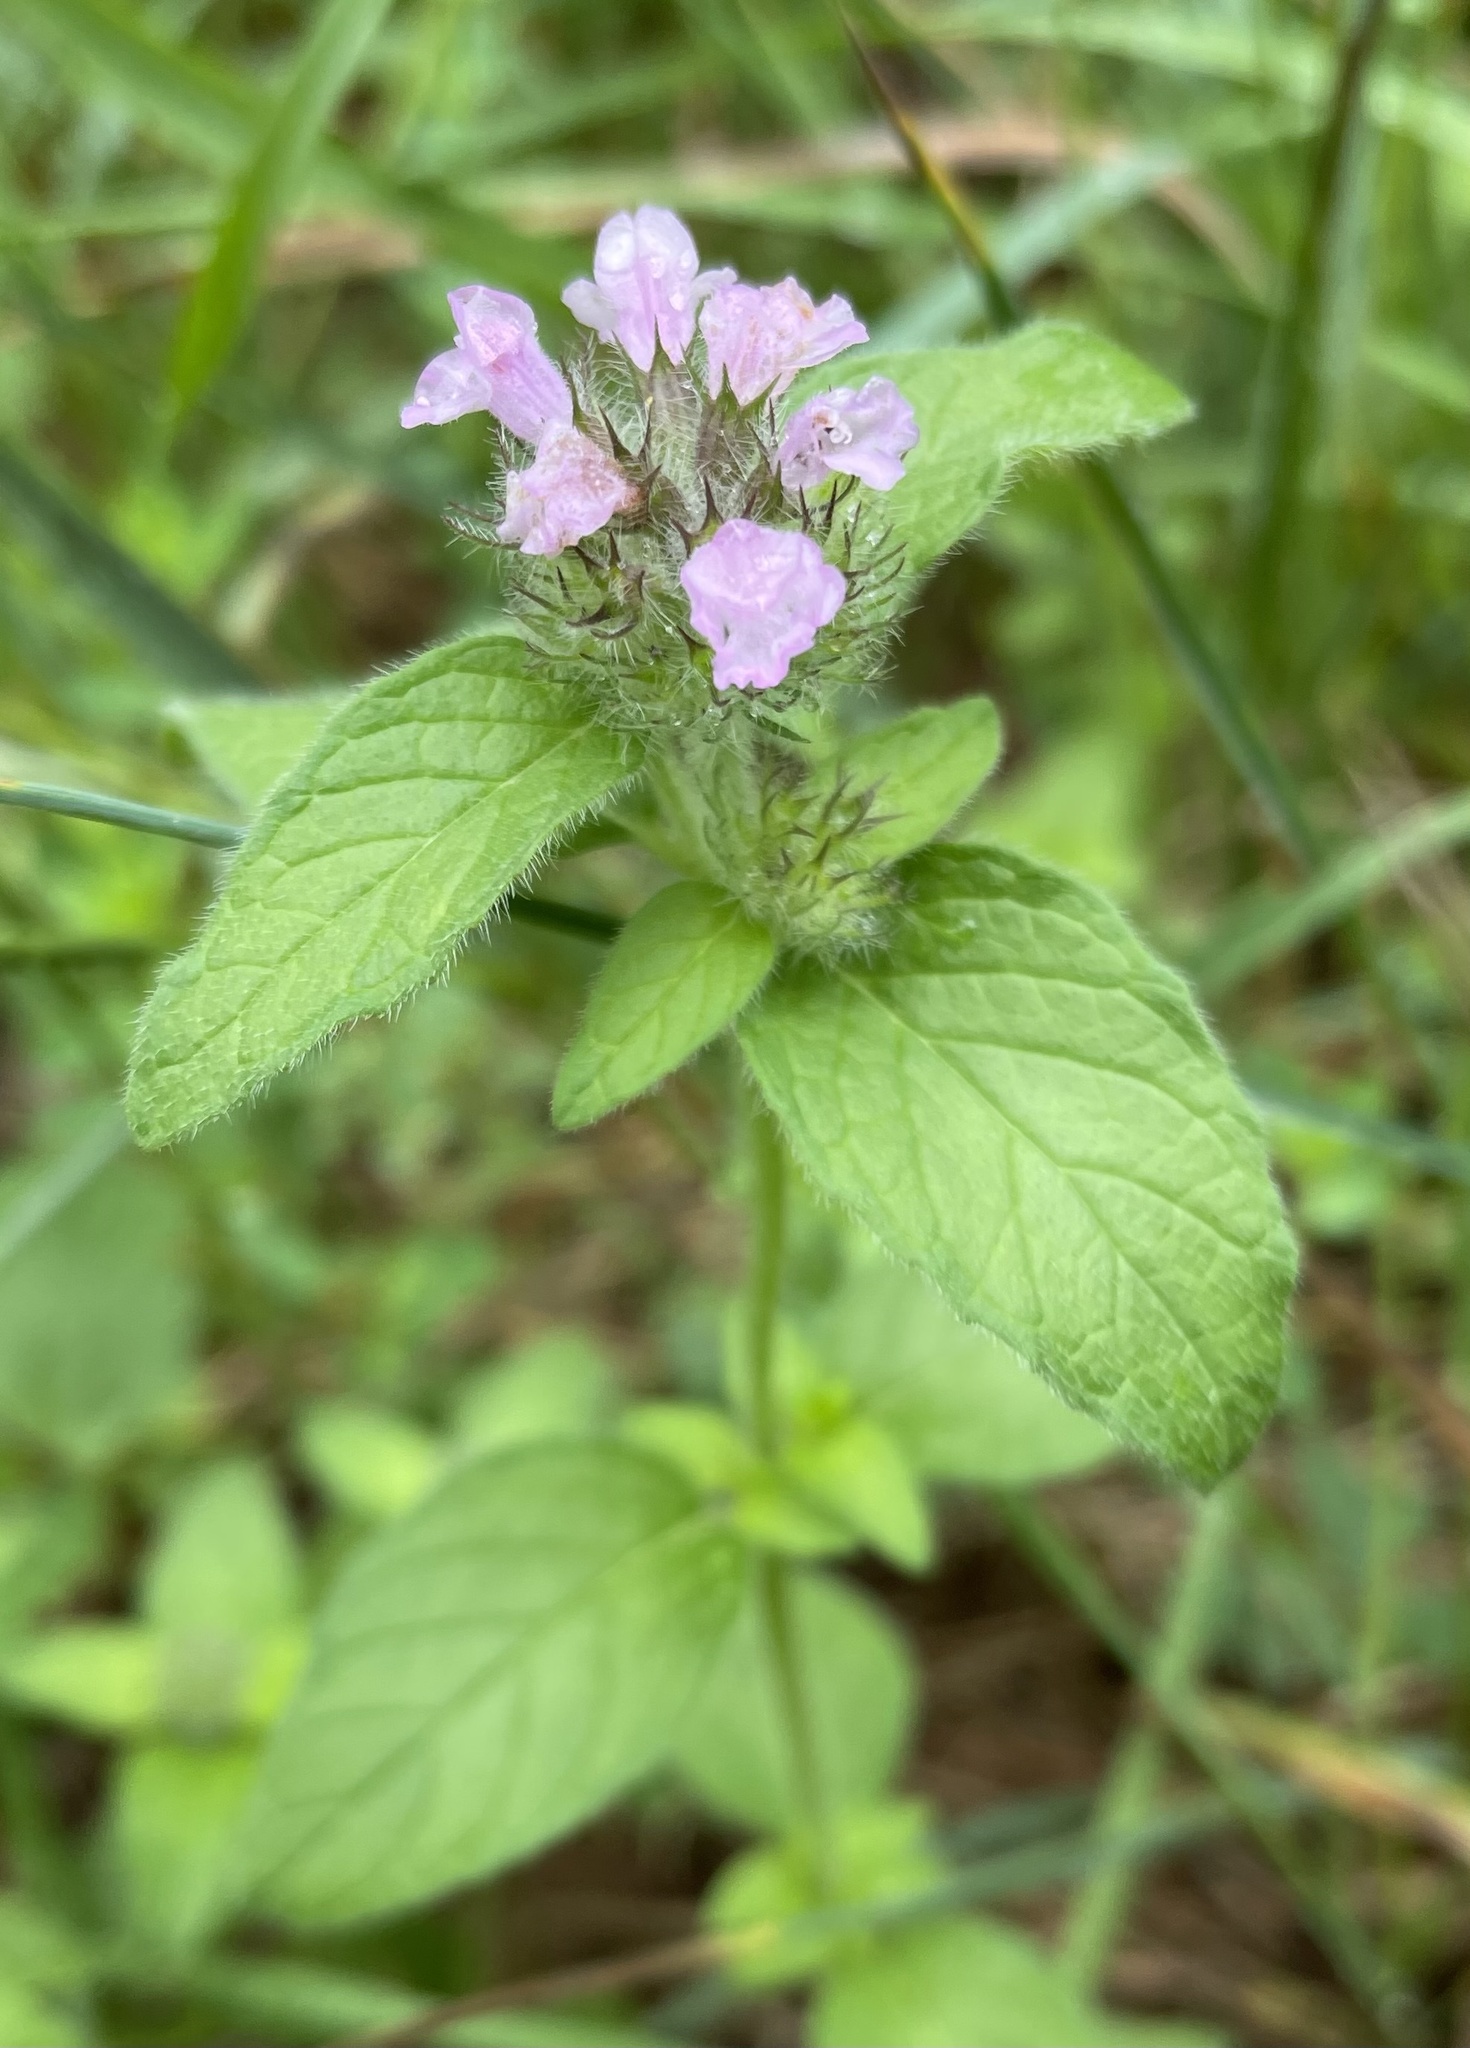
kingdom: Plantae
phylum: Tracheophyta
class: Magnoliopsida
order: Lamiales
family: Lamiaceae
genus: Clinopodium
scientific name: Clinopodium vulgare
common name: Wild basil
